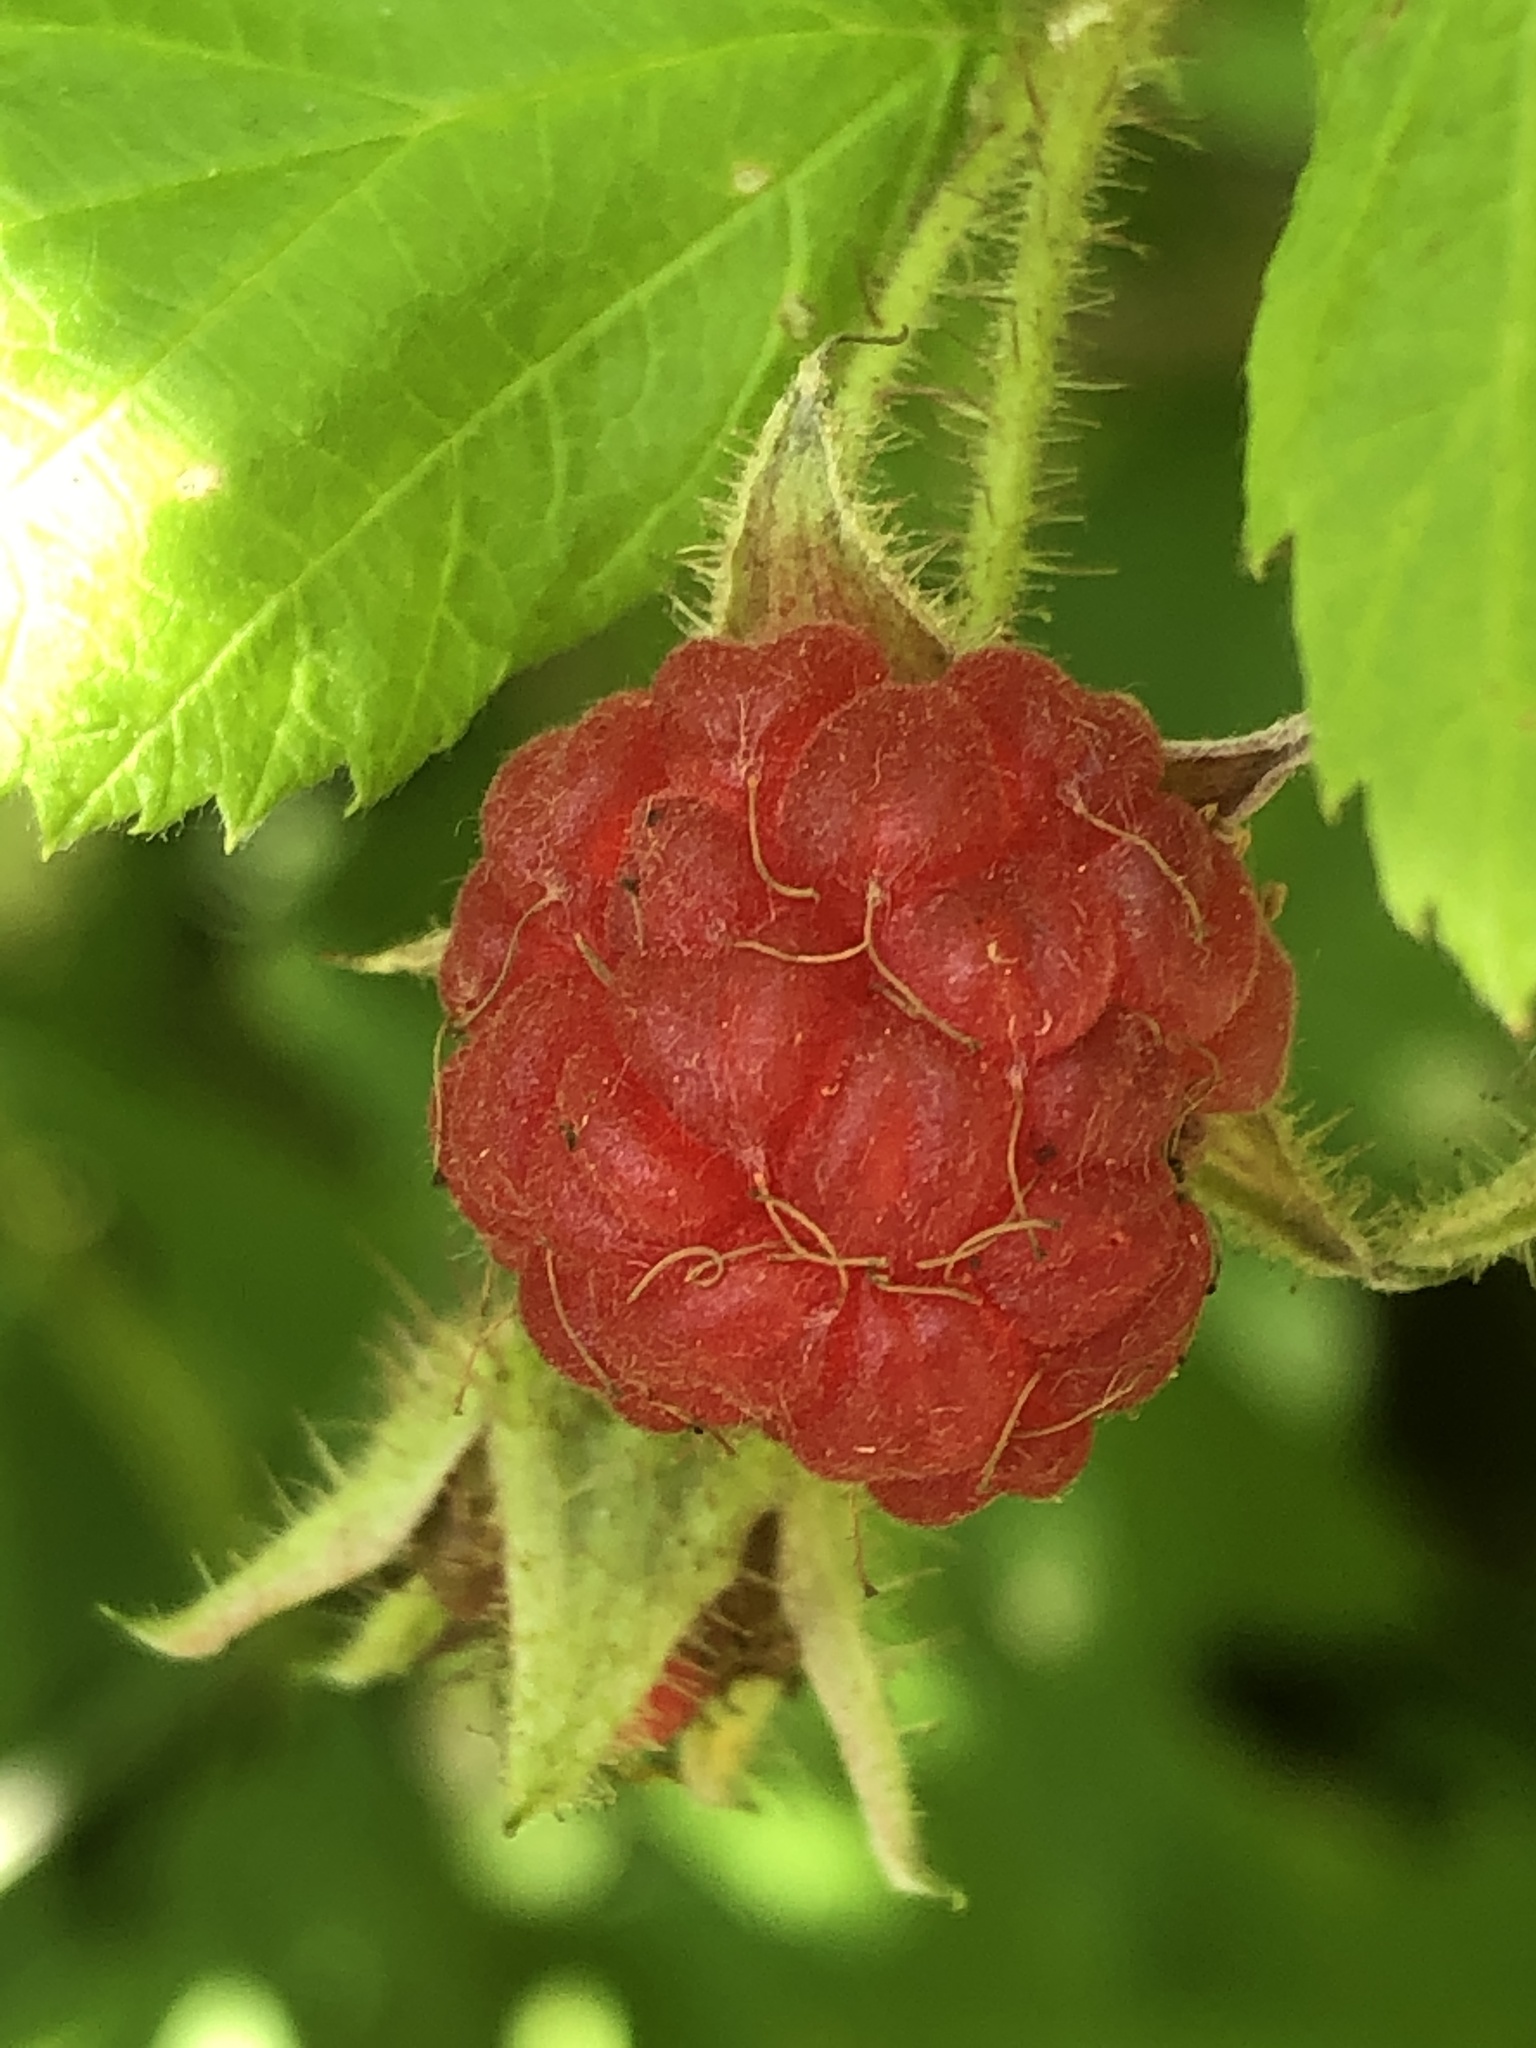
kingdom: Plantae
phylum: Tracheophyta
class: Magnoliopsida
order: Rosales
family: Rosaceae
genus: Rubus
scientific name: Rubus idaeus
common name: Raspberry
